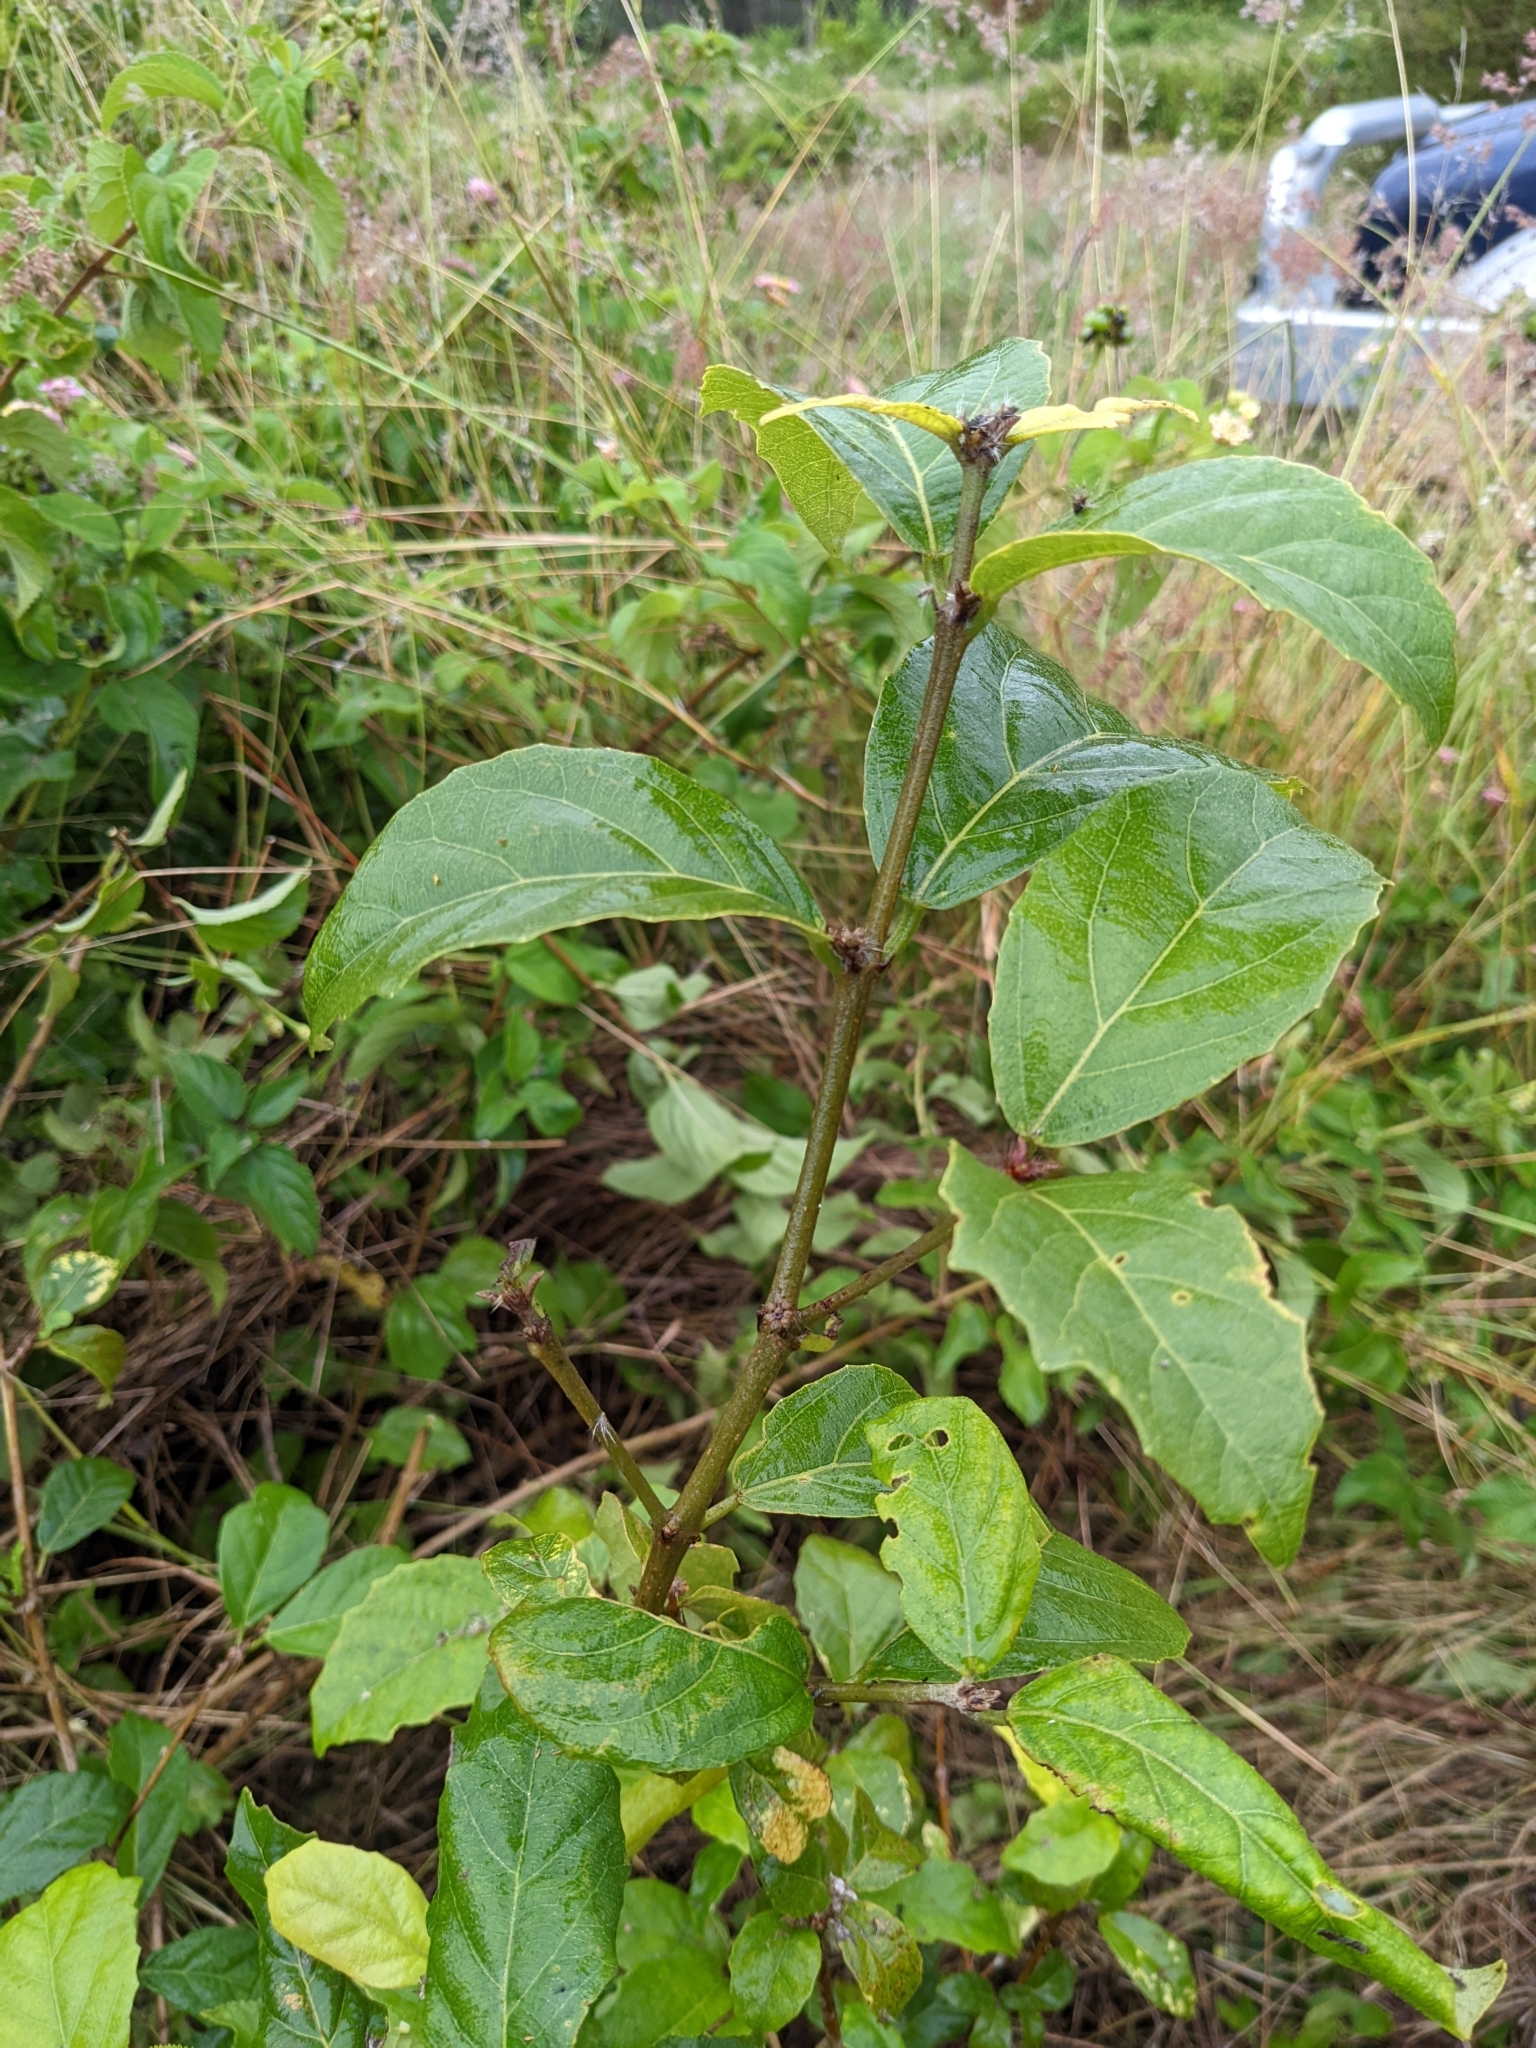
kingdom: Plantae
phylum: Tracheophyta
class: Magnoliopsida
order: Malpighiales
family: Euphorbiaceae
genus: Mallotus
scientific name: Mallotus claoxyloides
